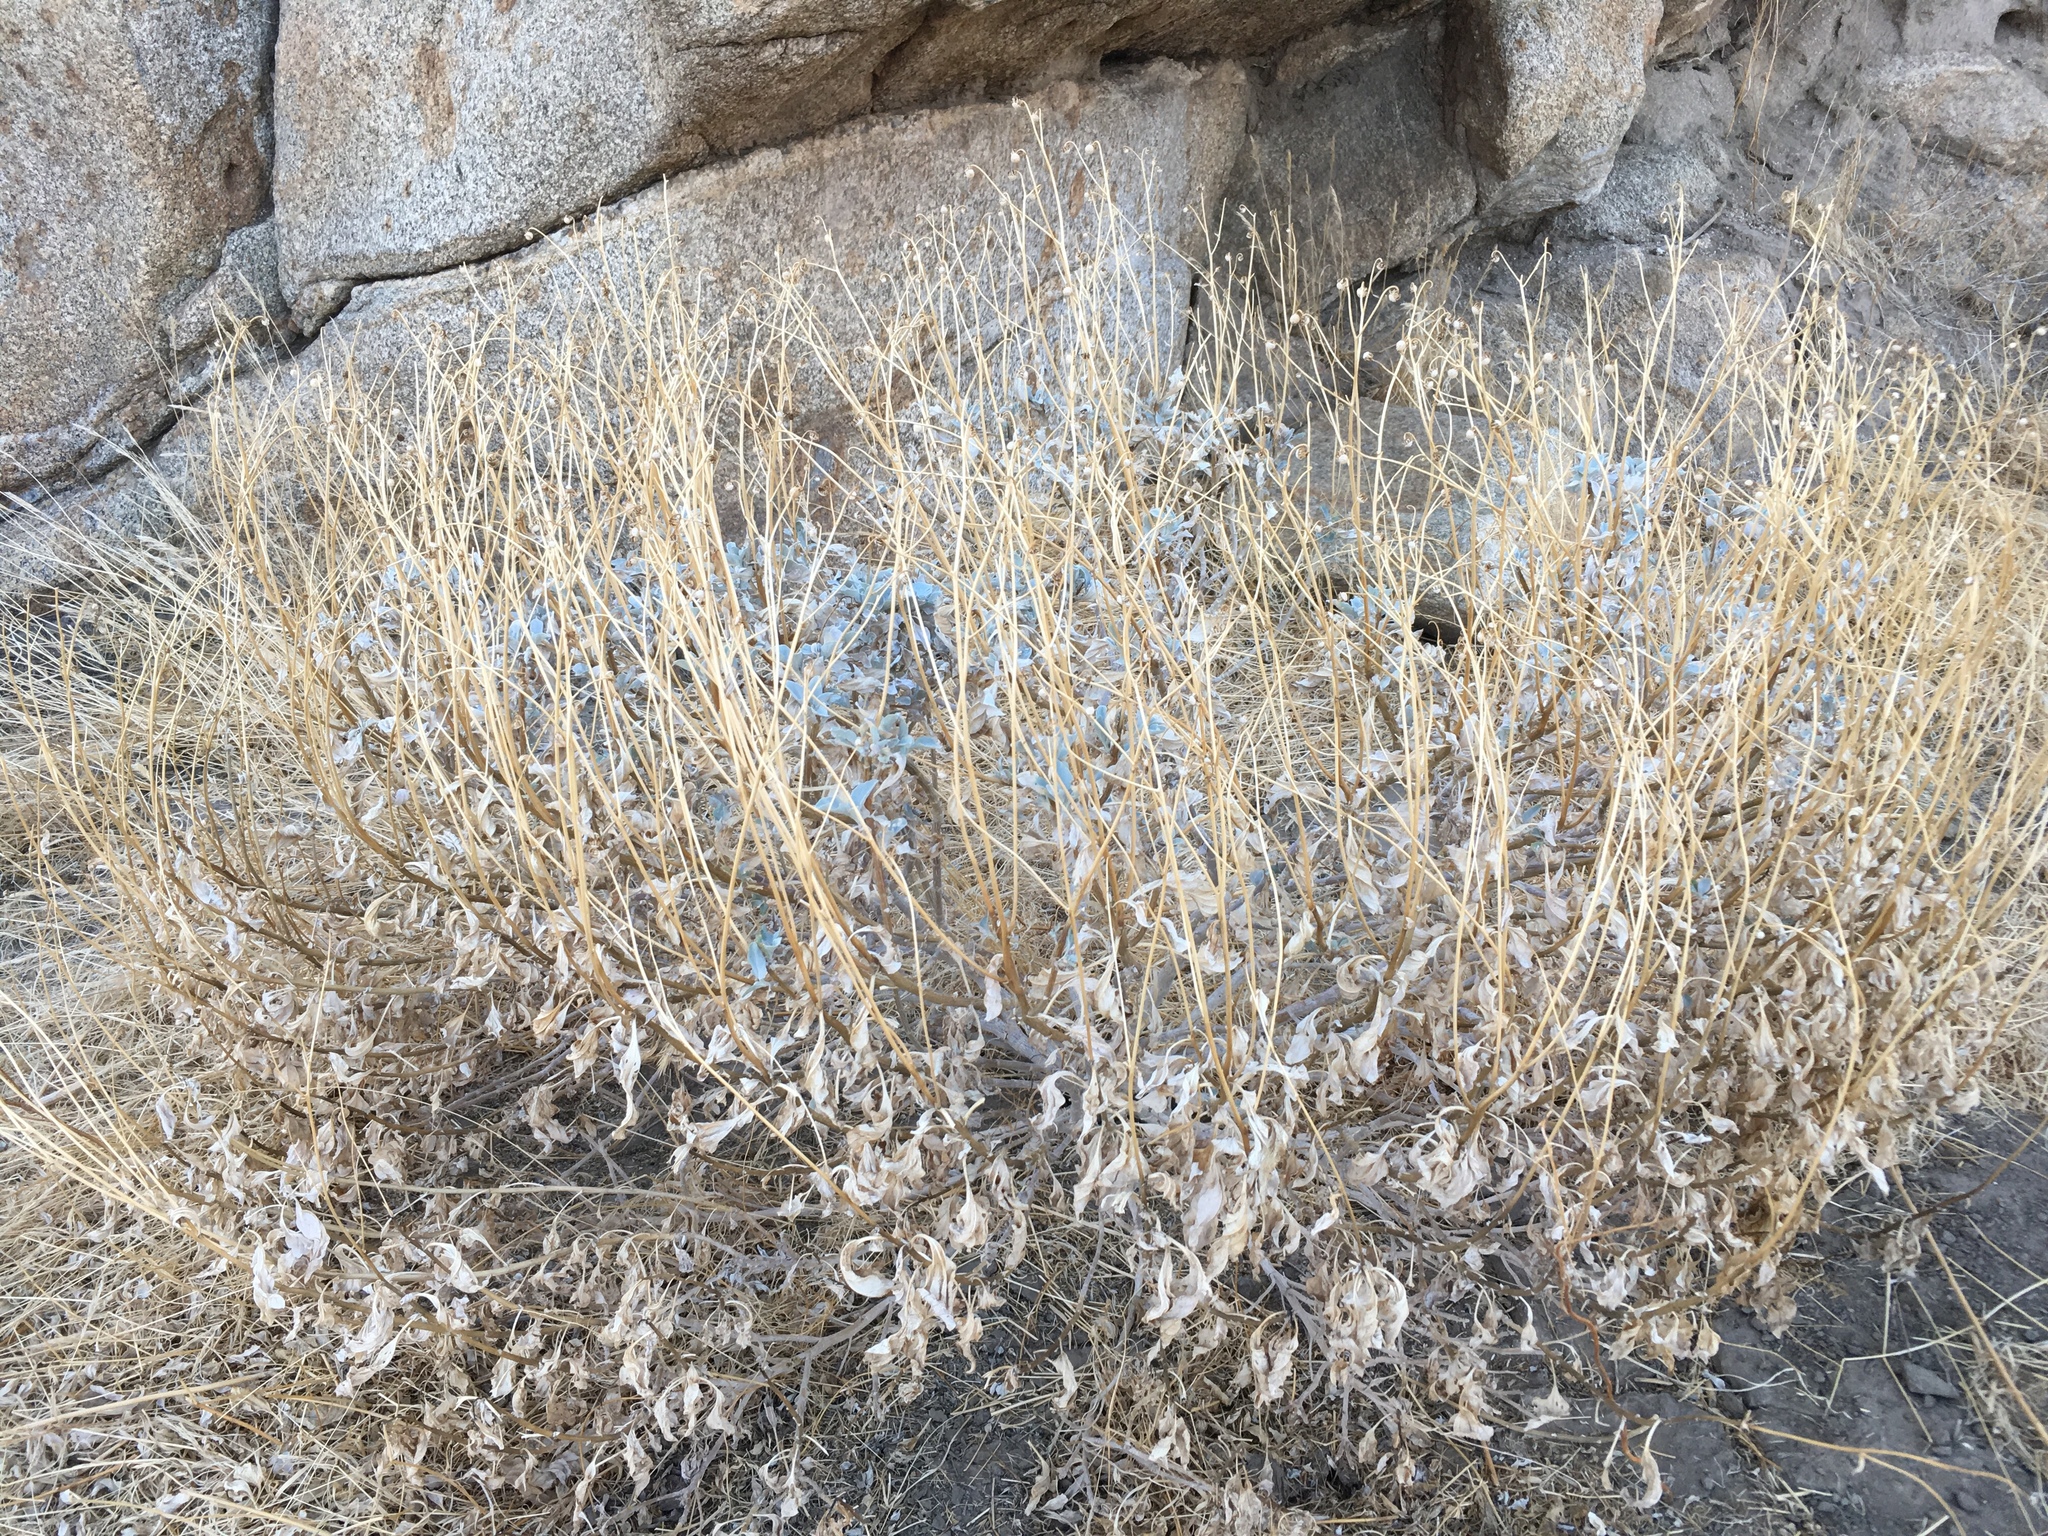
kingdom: Plantae
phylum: Tracheophyta
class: Magnoliopsida
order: Asterales
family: Asteraceae
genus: Encelia
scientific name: Encelia farinosa
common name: Brittlebush
